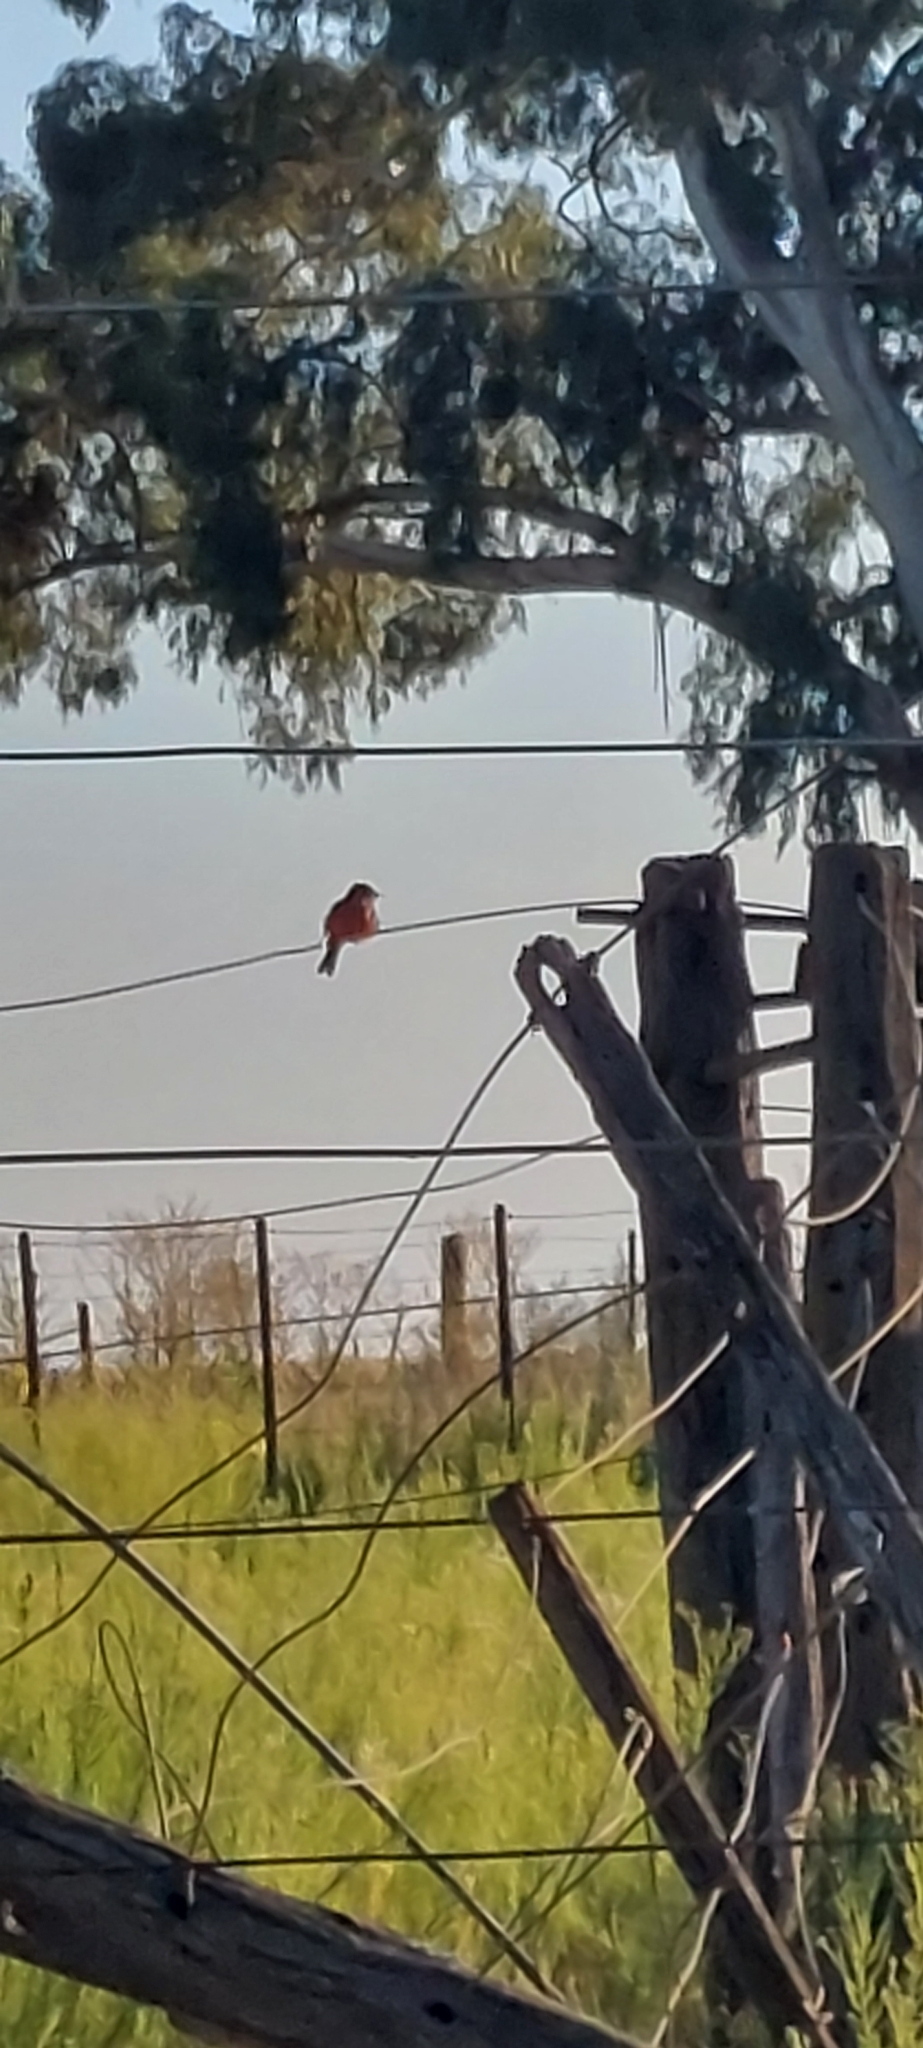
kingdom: Animalia
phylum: Chordata
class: Aves
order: Passeriformes
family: Tyrannidae
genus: Pyrocephalus
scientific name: Pyrocephalus rubinus
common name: Vermilion flycatcher
